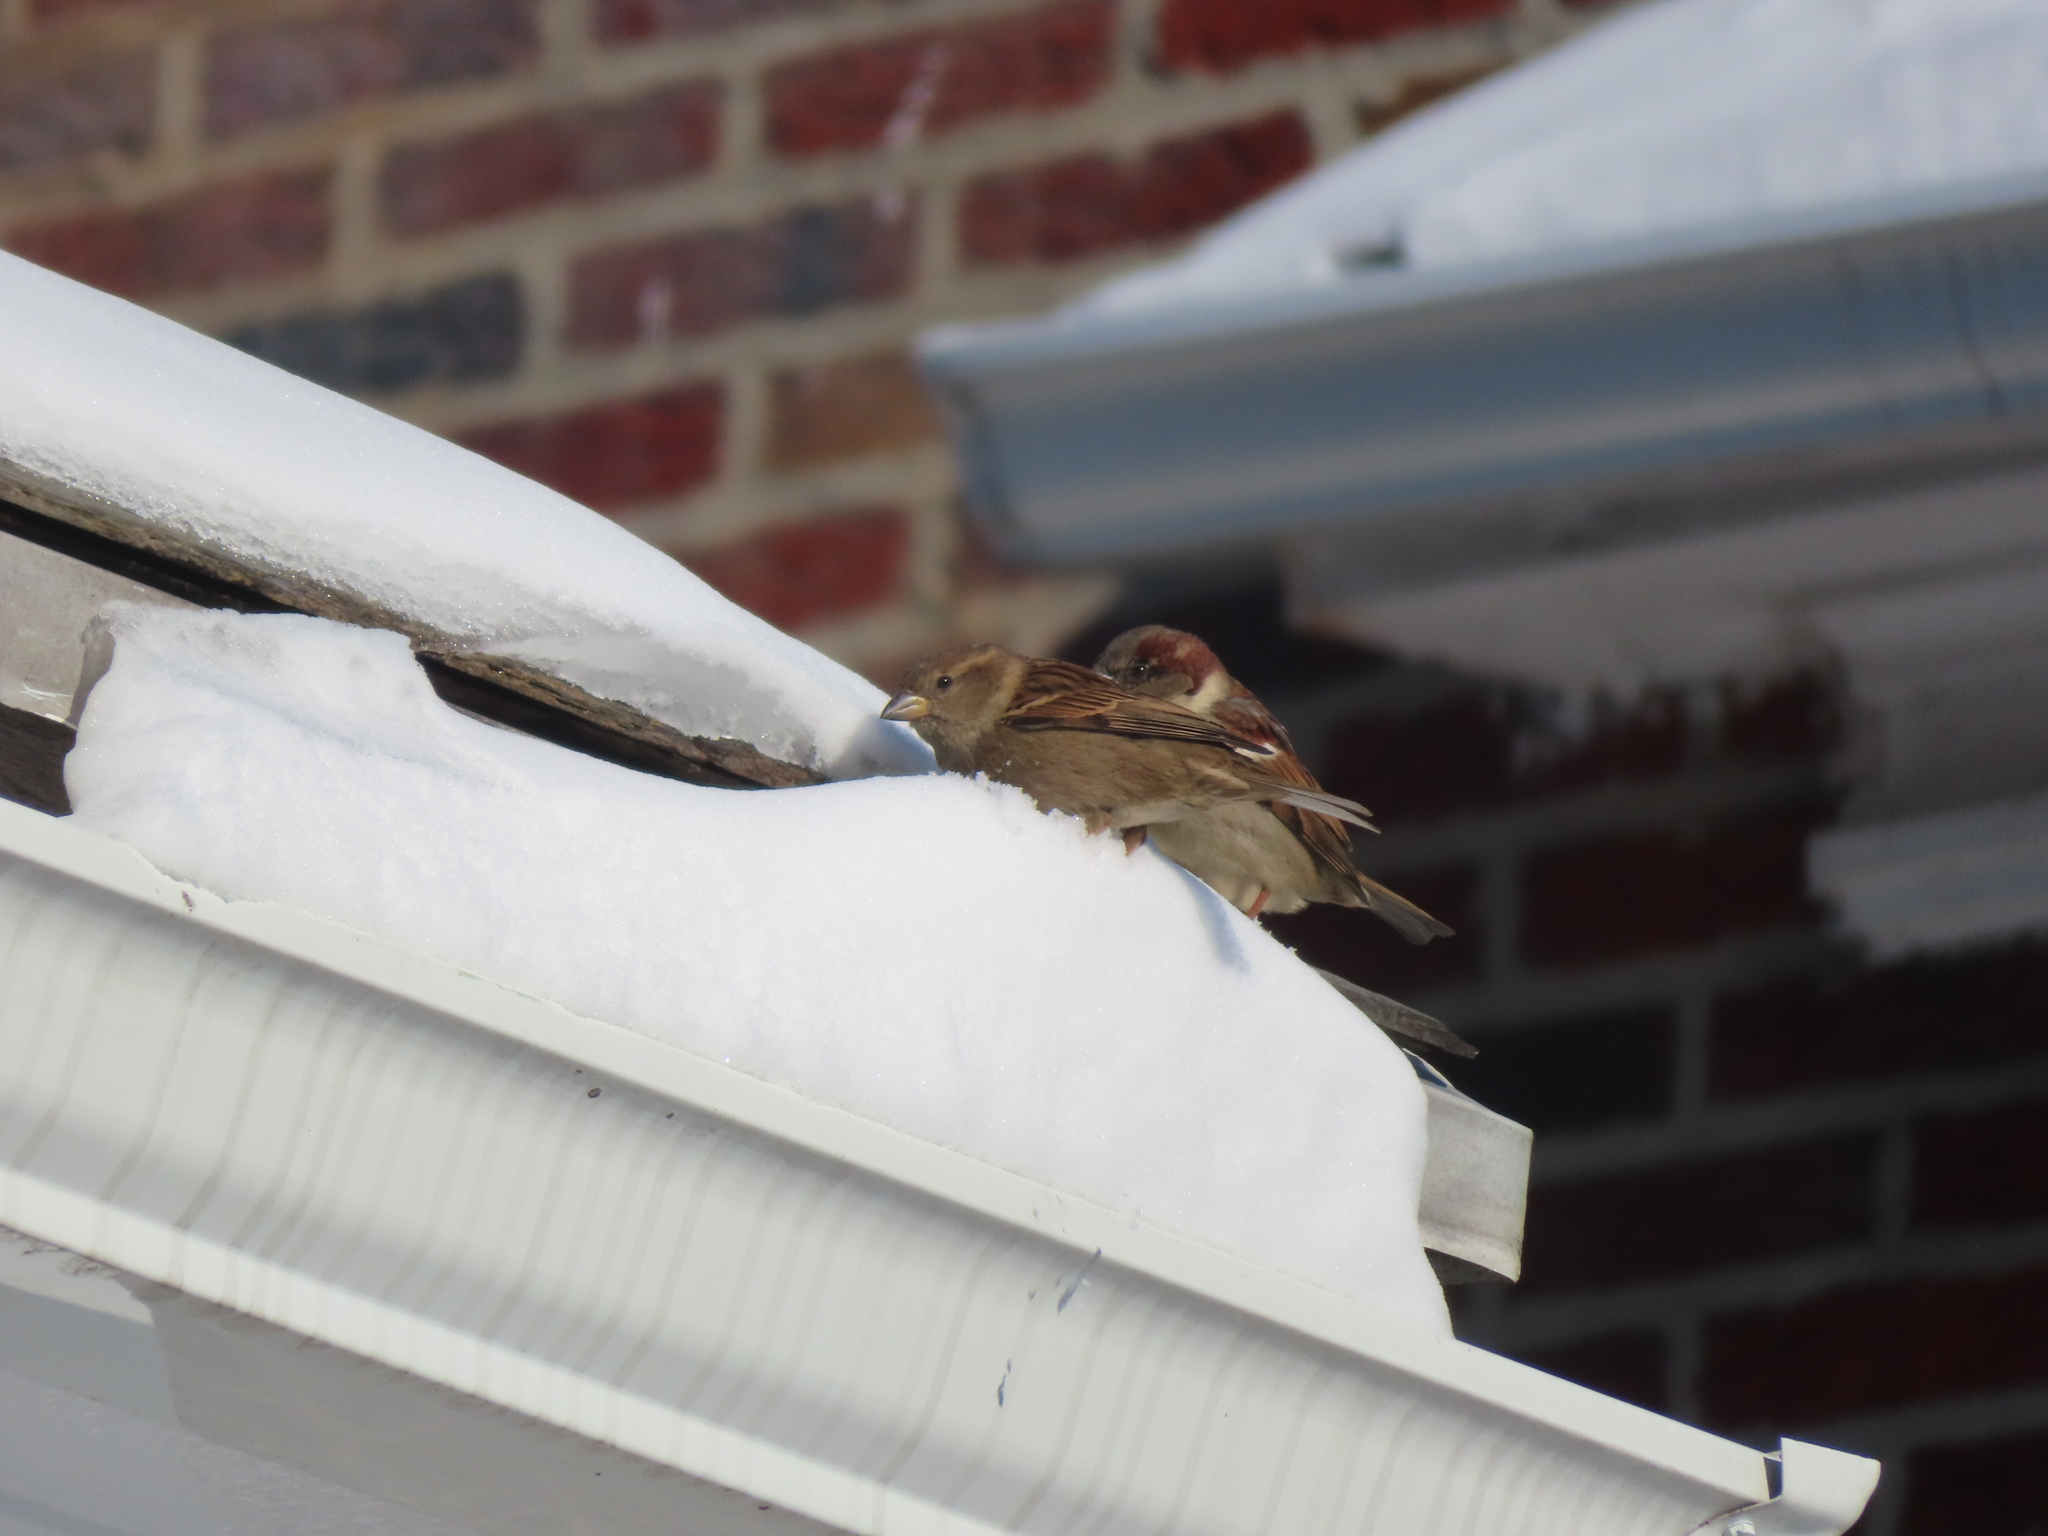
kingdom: Animalia
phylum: Chordata
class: Aves
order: Passeriformes
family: Passeridae
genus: Passer
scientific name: Passer domesticus
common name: House sparrow
